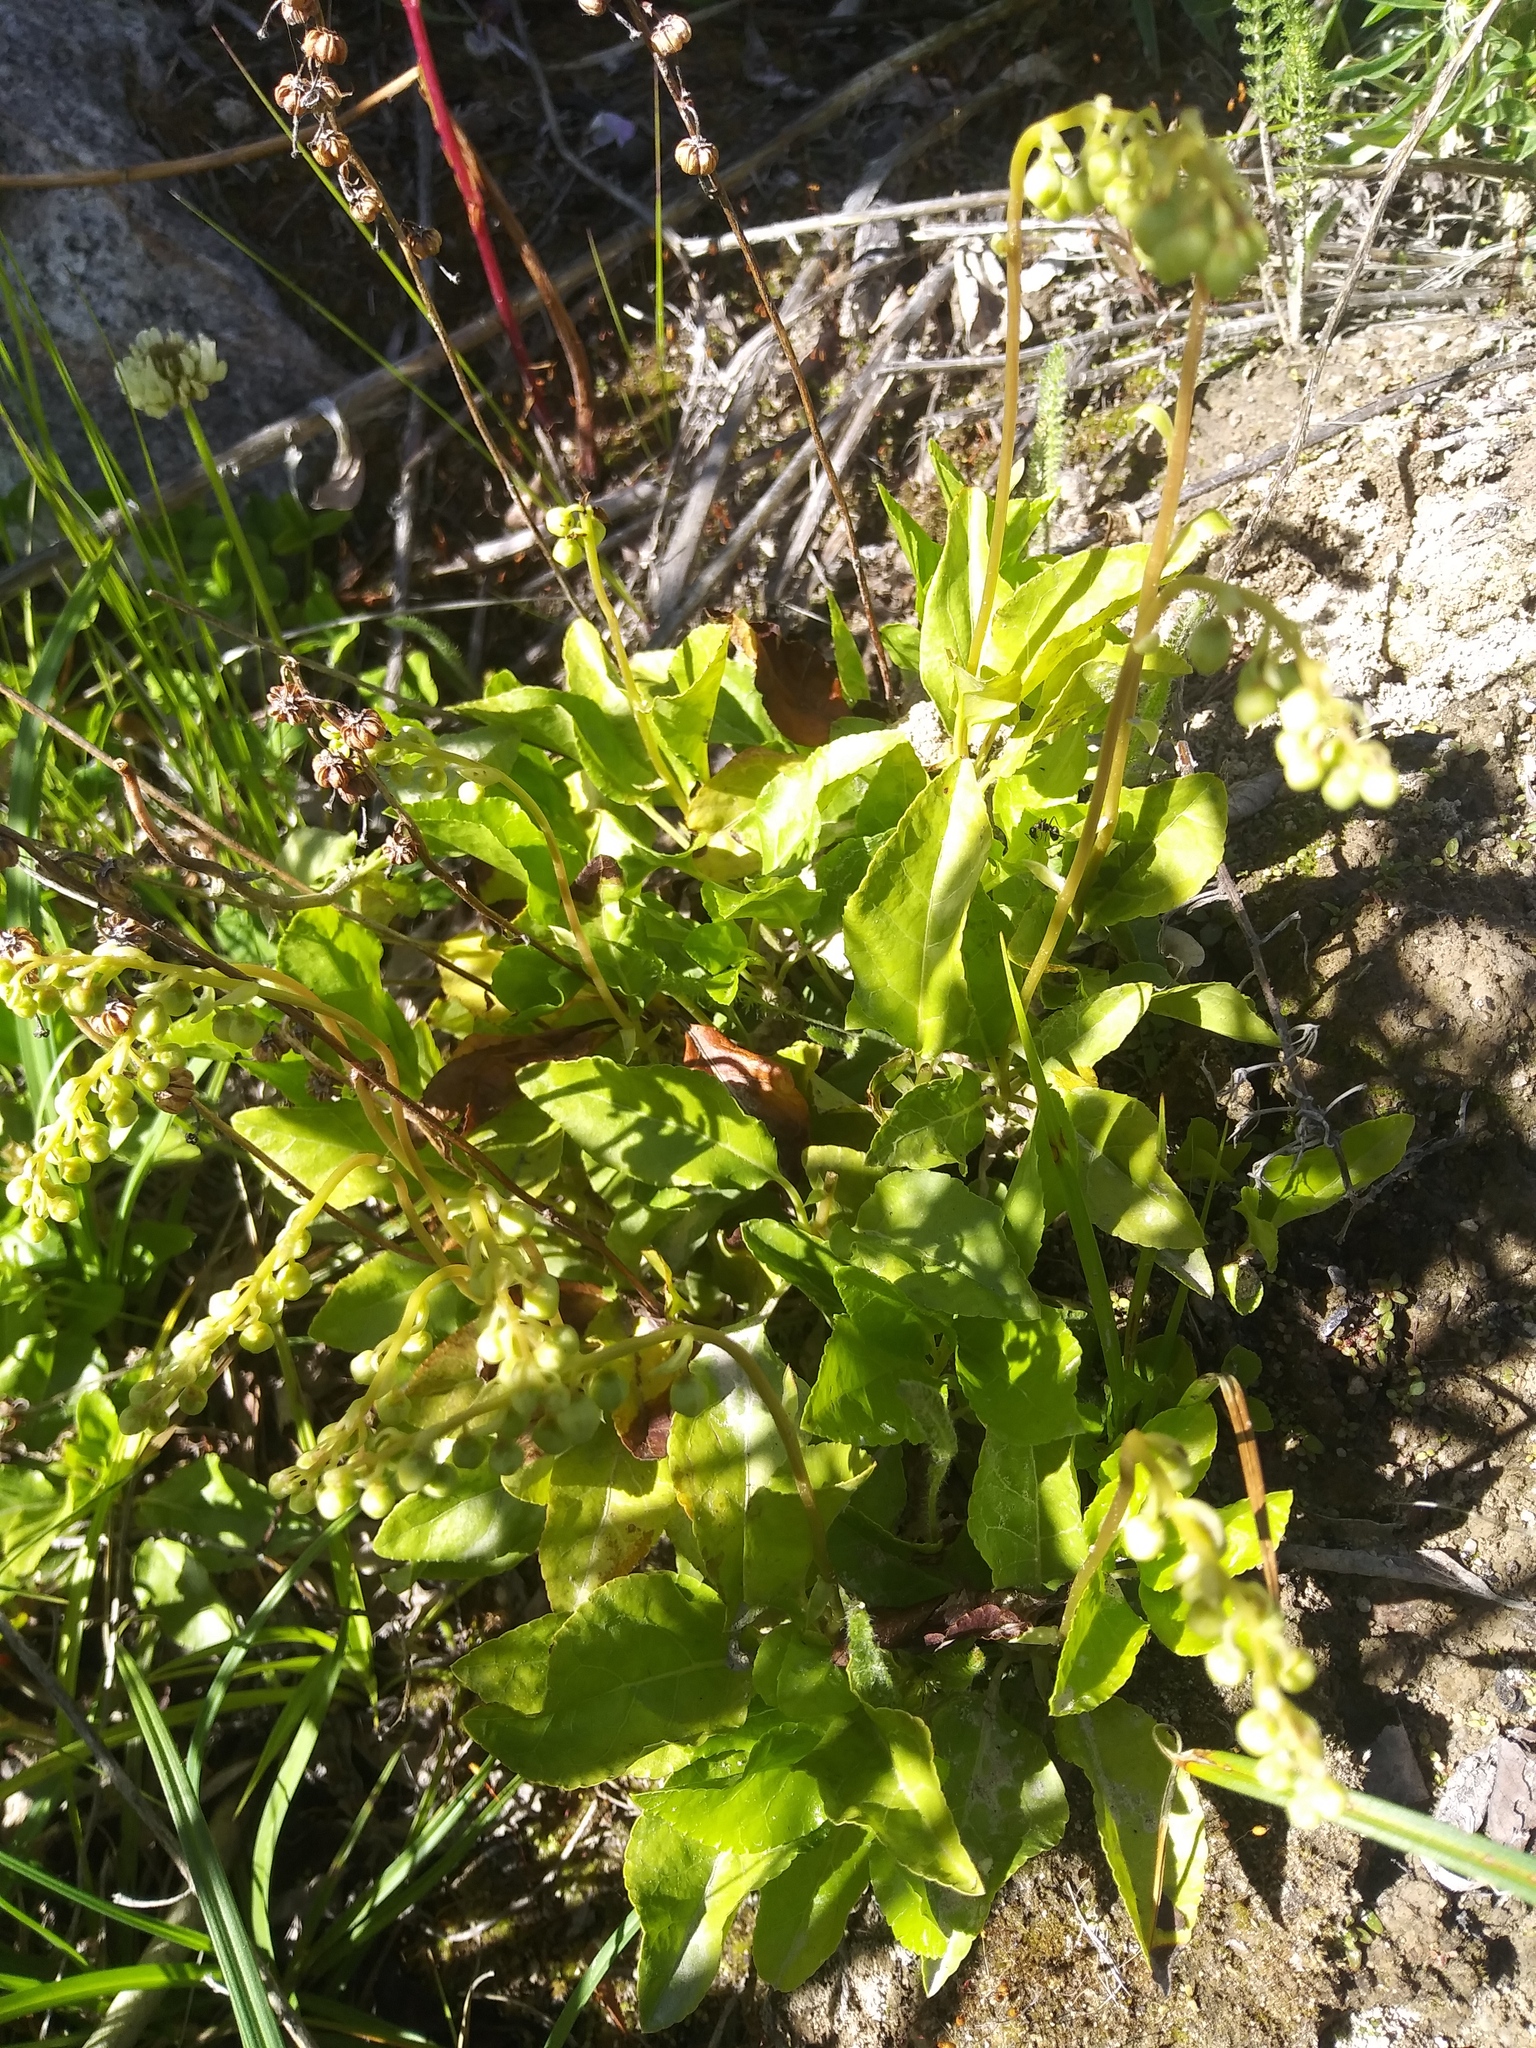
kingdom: Plantae
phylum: Tracheophyta
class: Magnoliopsida
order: Ericales
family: Ericaceae
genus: Orthilia
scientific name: Orthilia secunda
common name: One-sided orthilia
